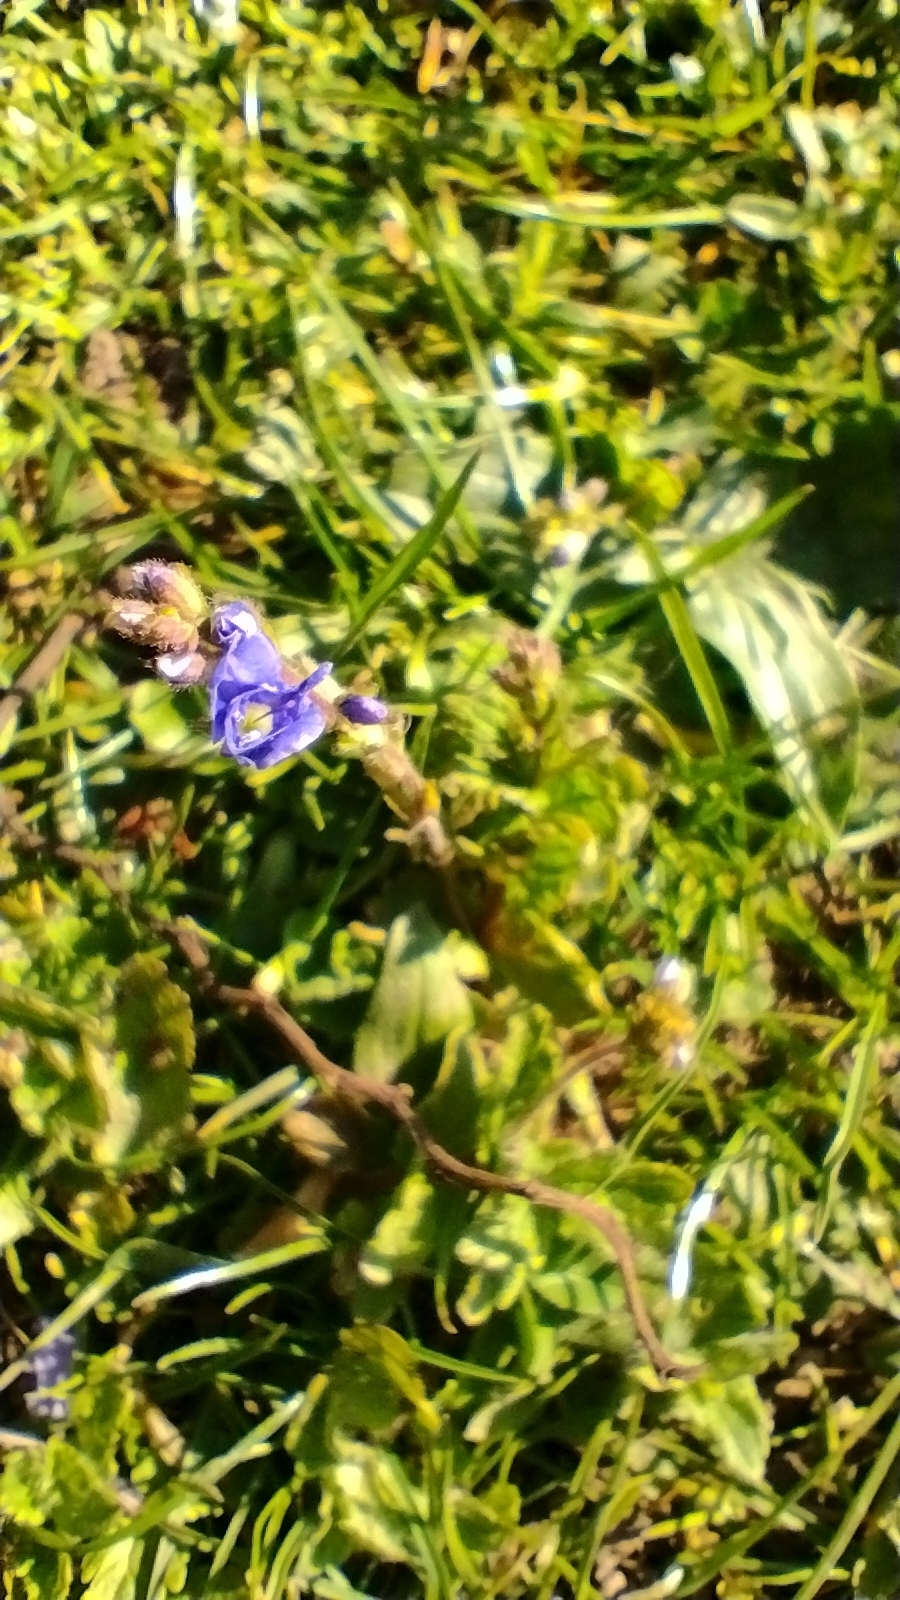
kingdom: Plantae
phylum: Tracheophyta
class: Magnoliopsida
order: Lamiales
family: Plantaginaceae
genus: Veronica
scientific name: Veronica chamaedrys
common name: Germander speedwell
